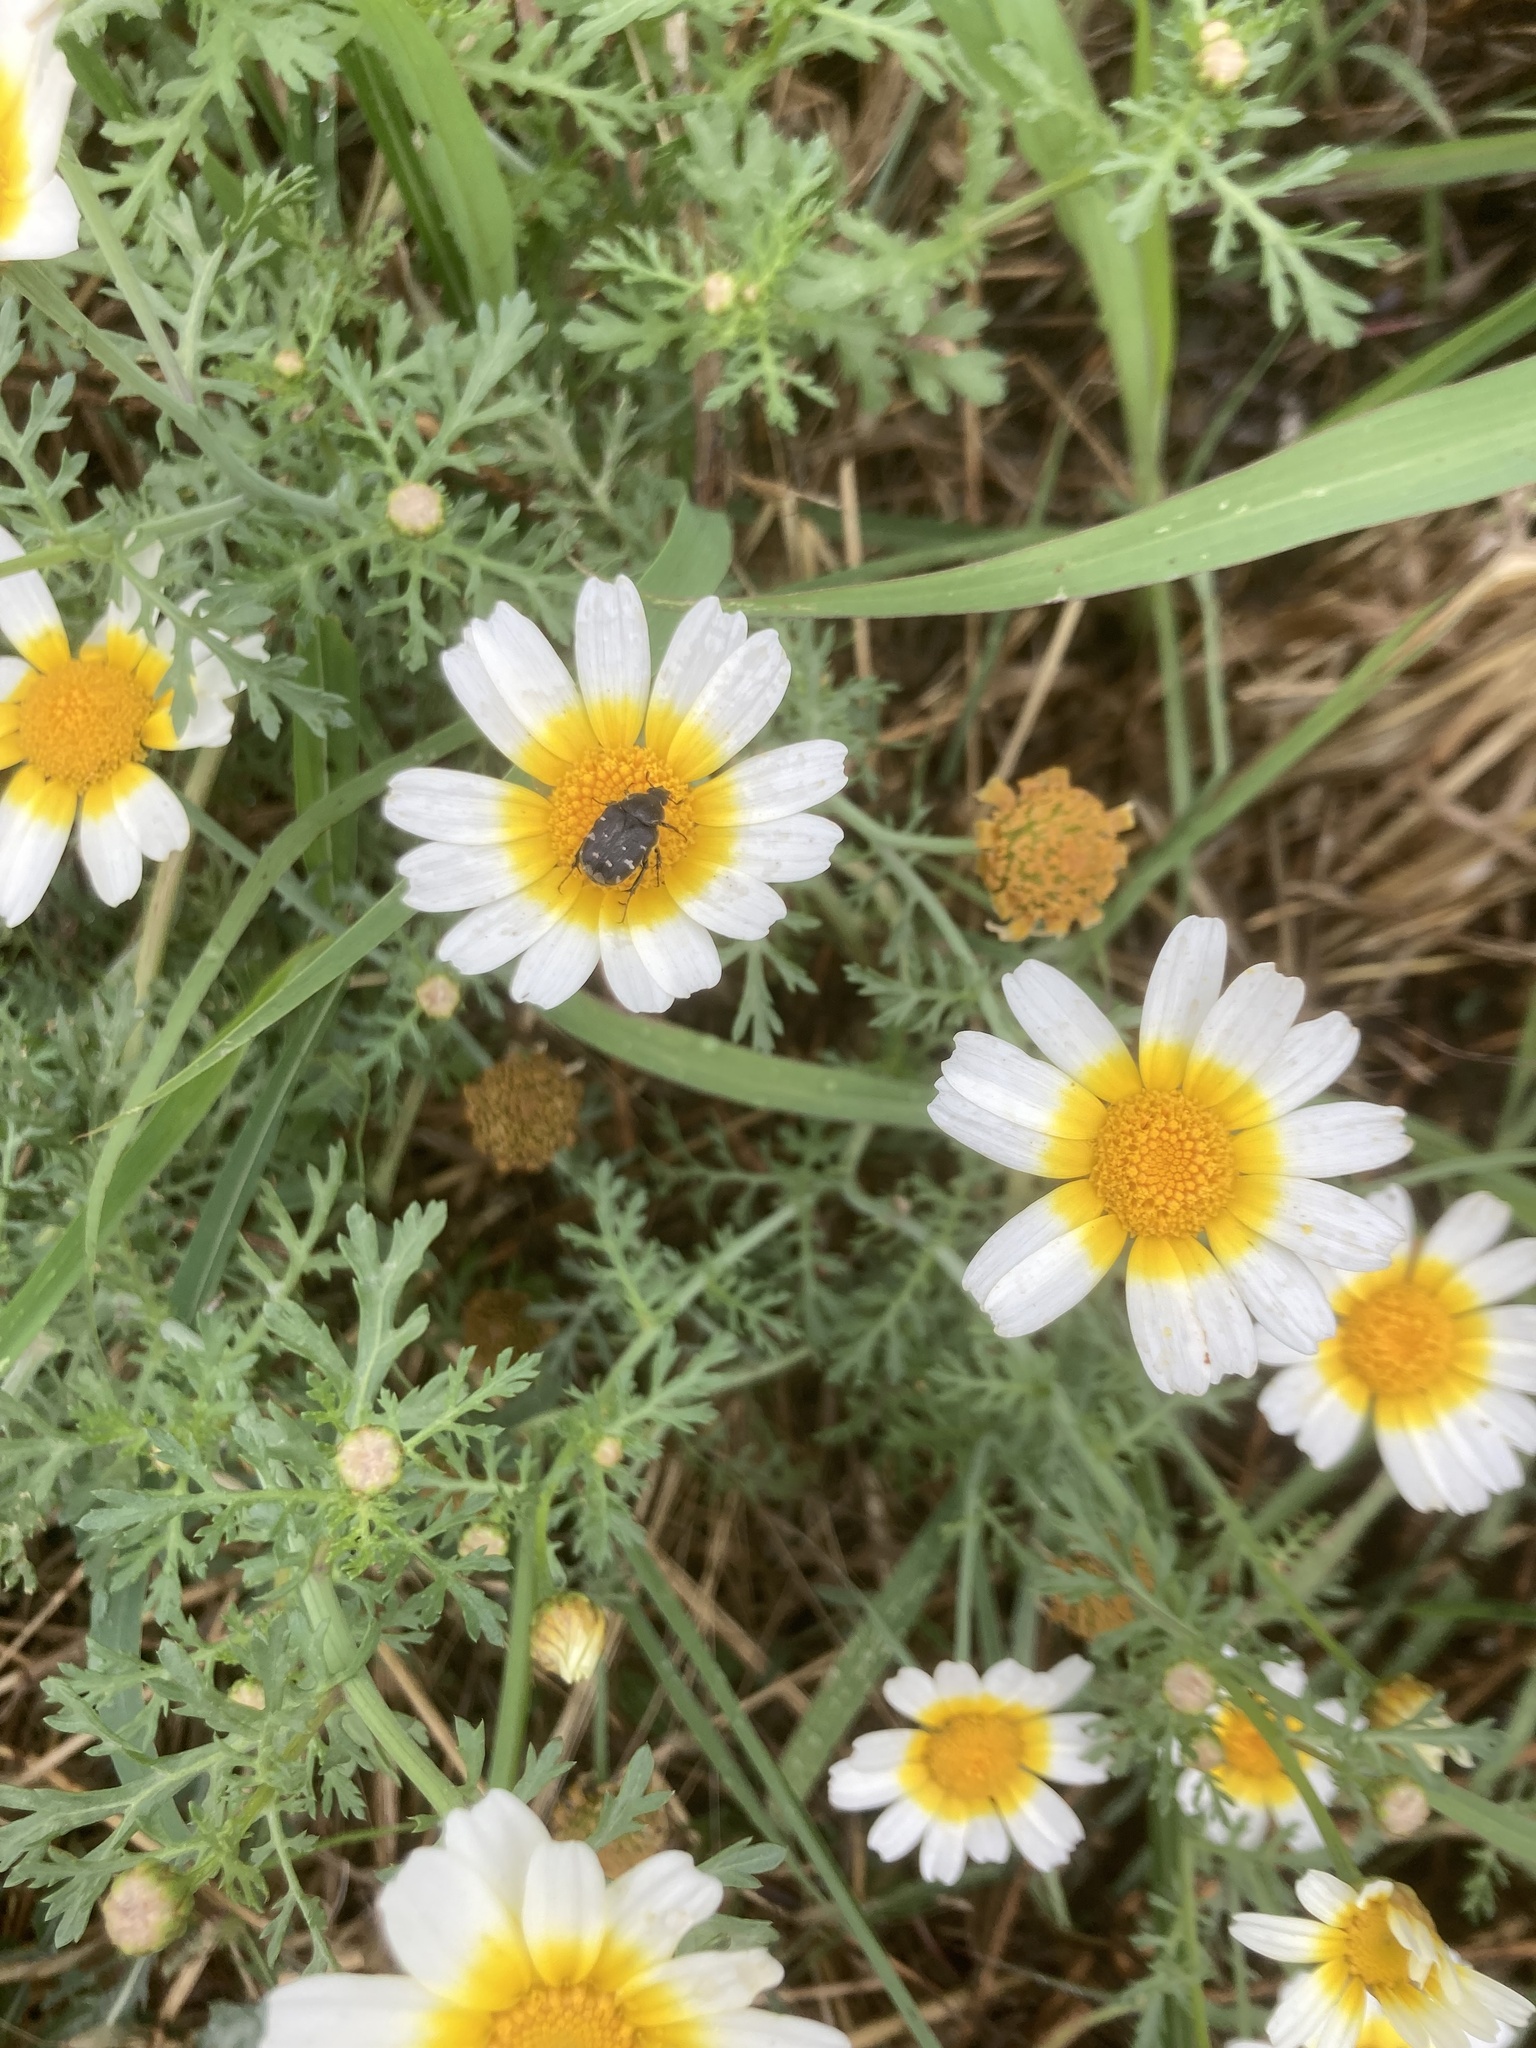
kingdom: Plantae
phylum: Tracheophyta
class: Magnoliopsida
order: Asterales
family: Asteraceae
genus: Glebionis
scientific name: Glebionis coronaria
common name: Crowndaisy
